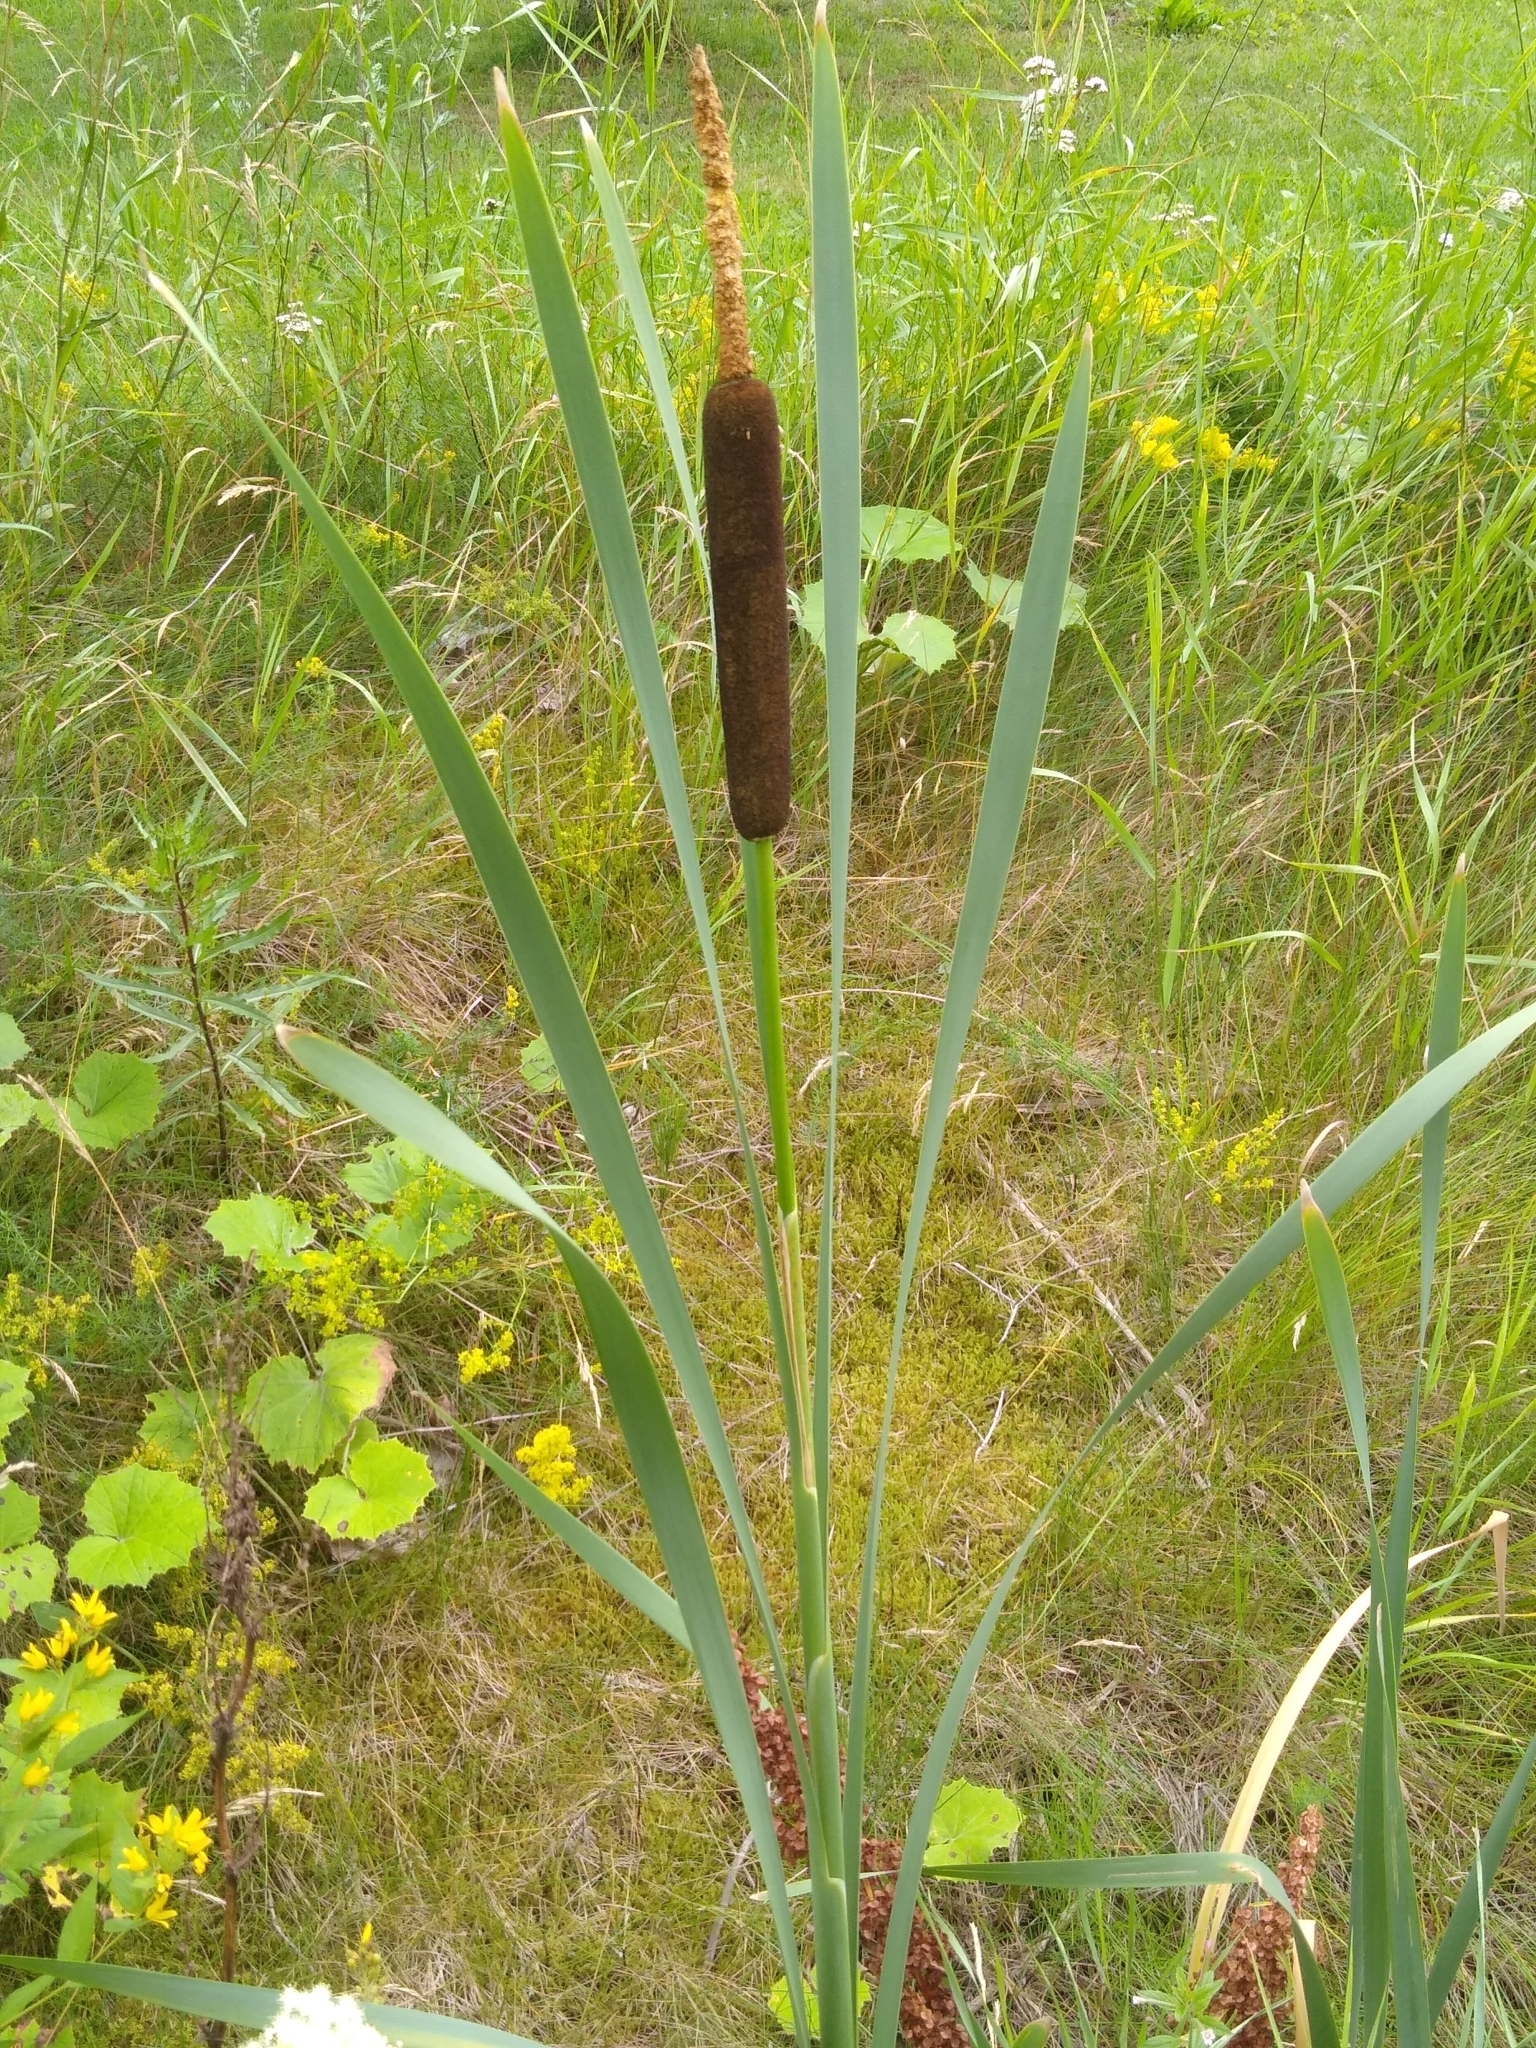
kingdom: Plantae
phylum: Tracheophyta
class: Liliopsida
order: Poales
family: Typhaceae
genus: Typha
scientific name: Typha latifolia
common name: Broadleaf cattail
